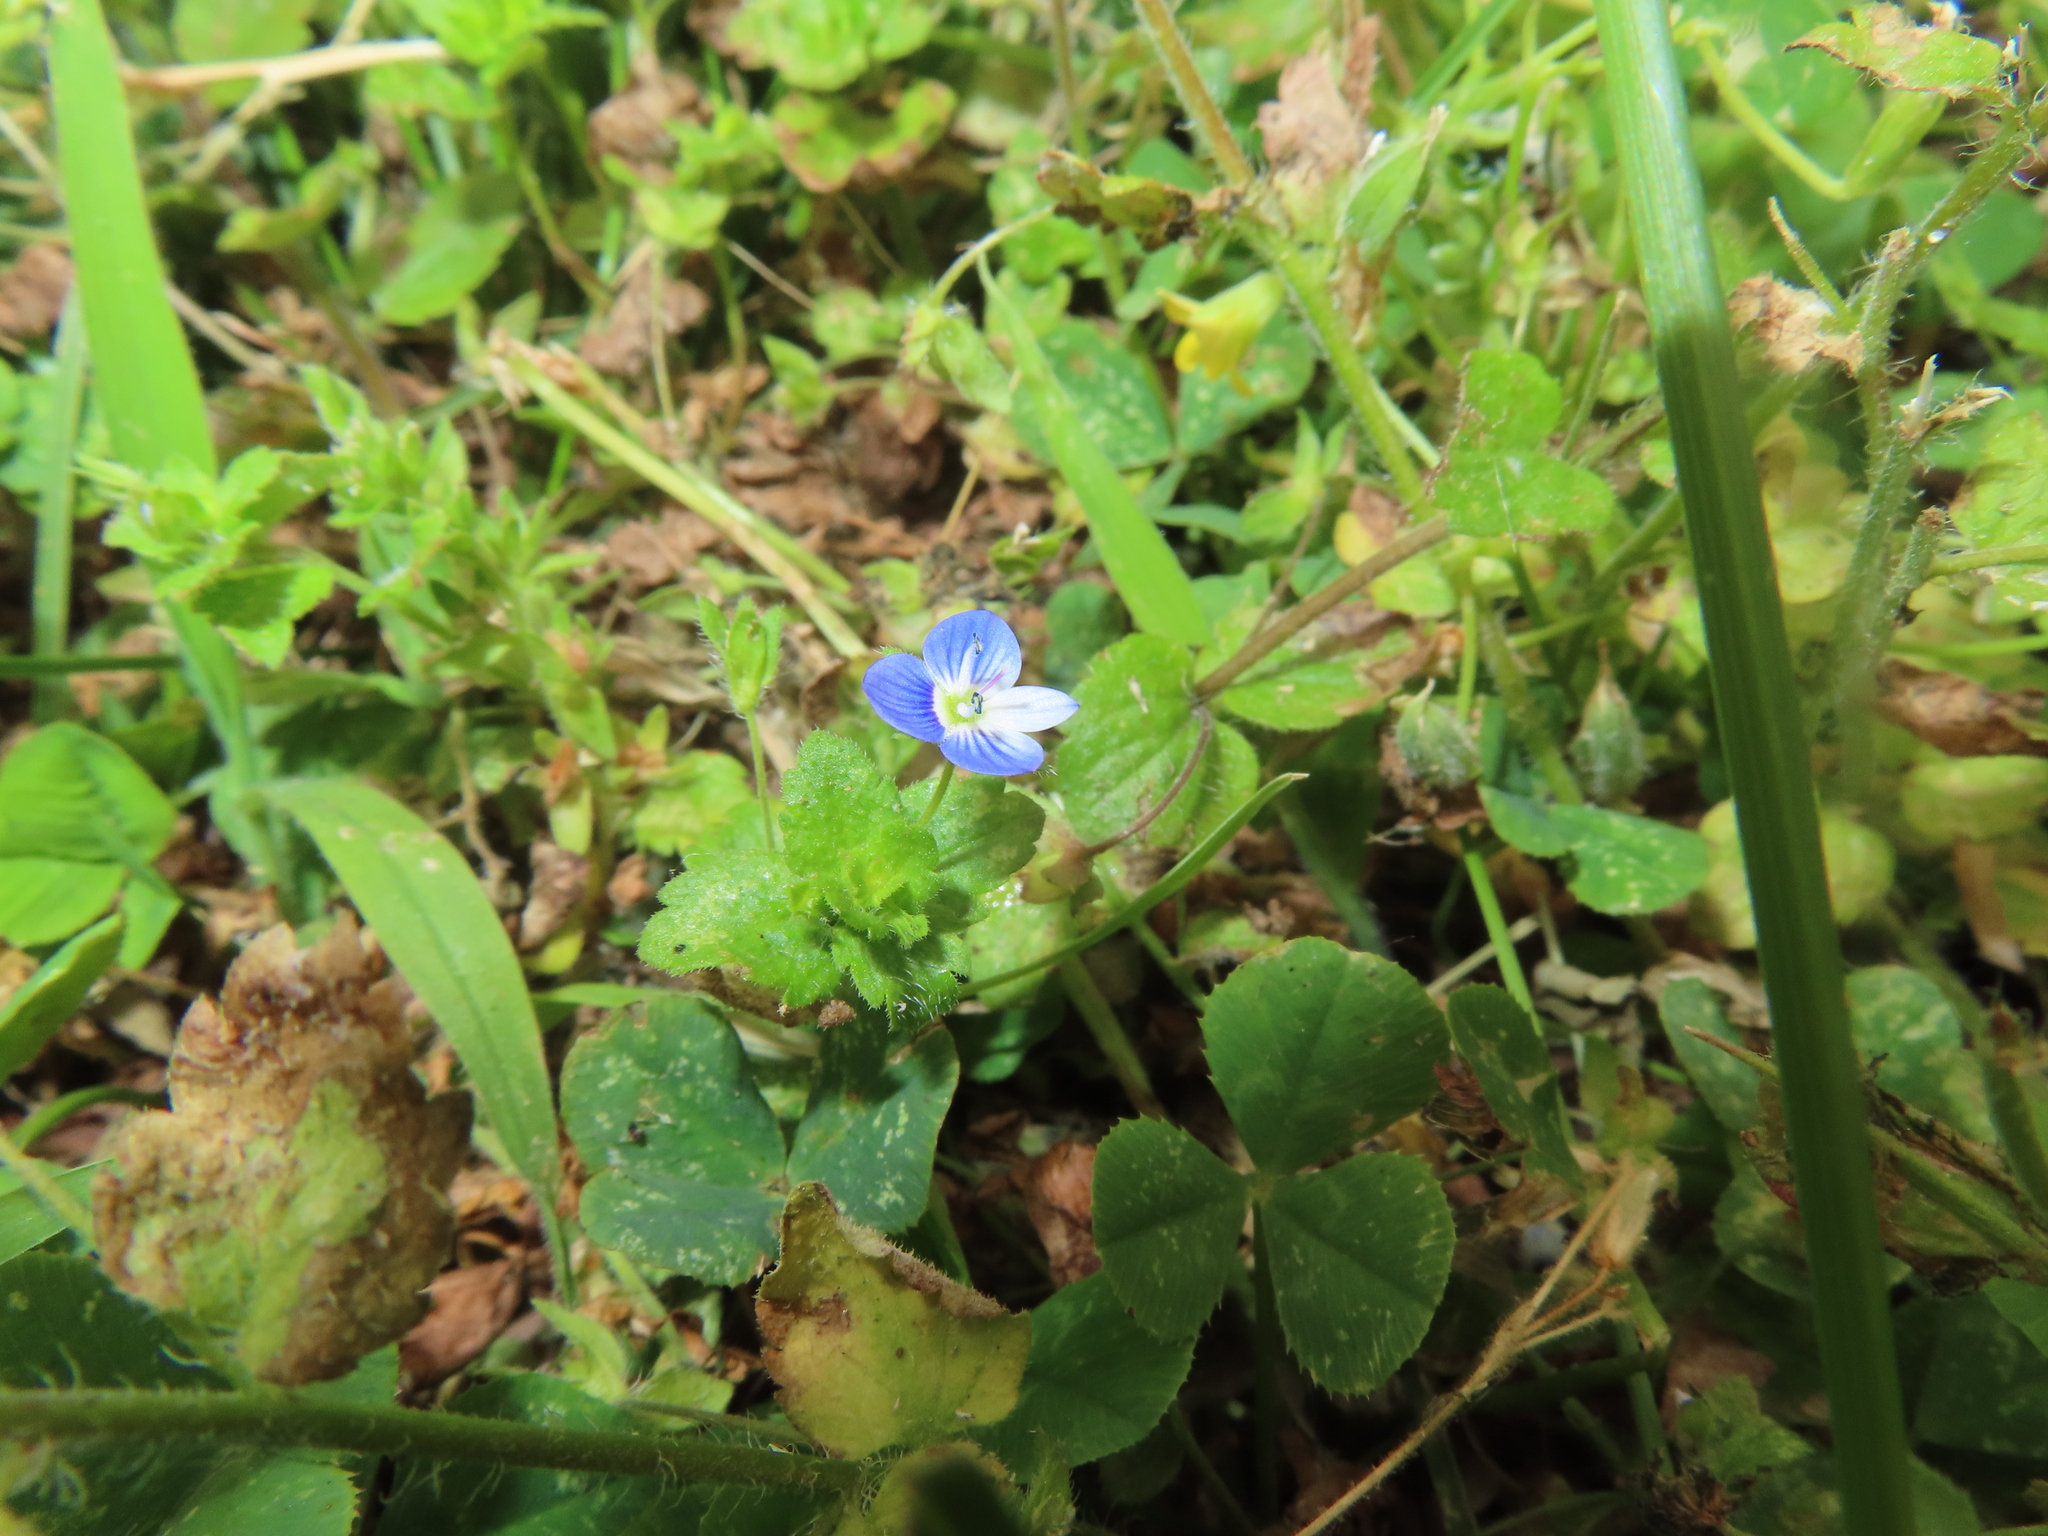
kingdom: Plantae
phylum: Tracheophyta
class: Magnoliopsida
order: Lamiales
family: Plantaginaceae
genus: Veronica
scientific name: Veronica persica
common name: Common field-speedwell
